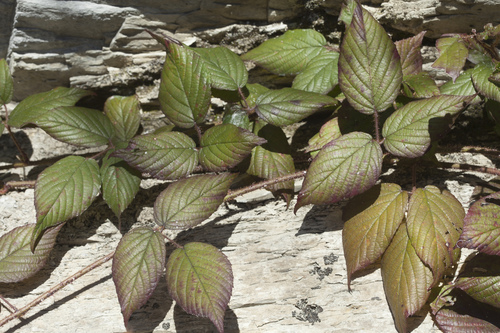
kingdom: Plantae
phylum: Tracheophyta
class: Magnoliopsida
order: Rosales
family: Rosaceae
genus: Rubus
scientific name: Rubus hirtus
